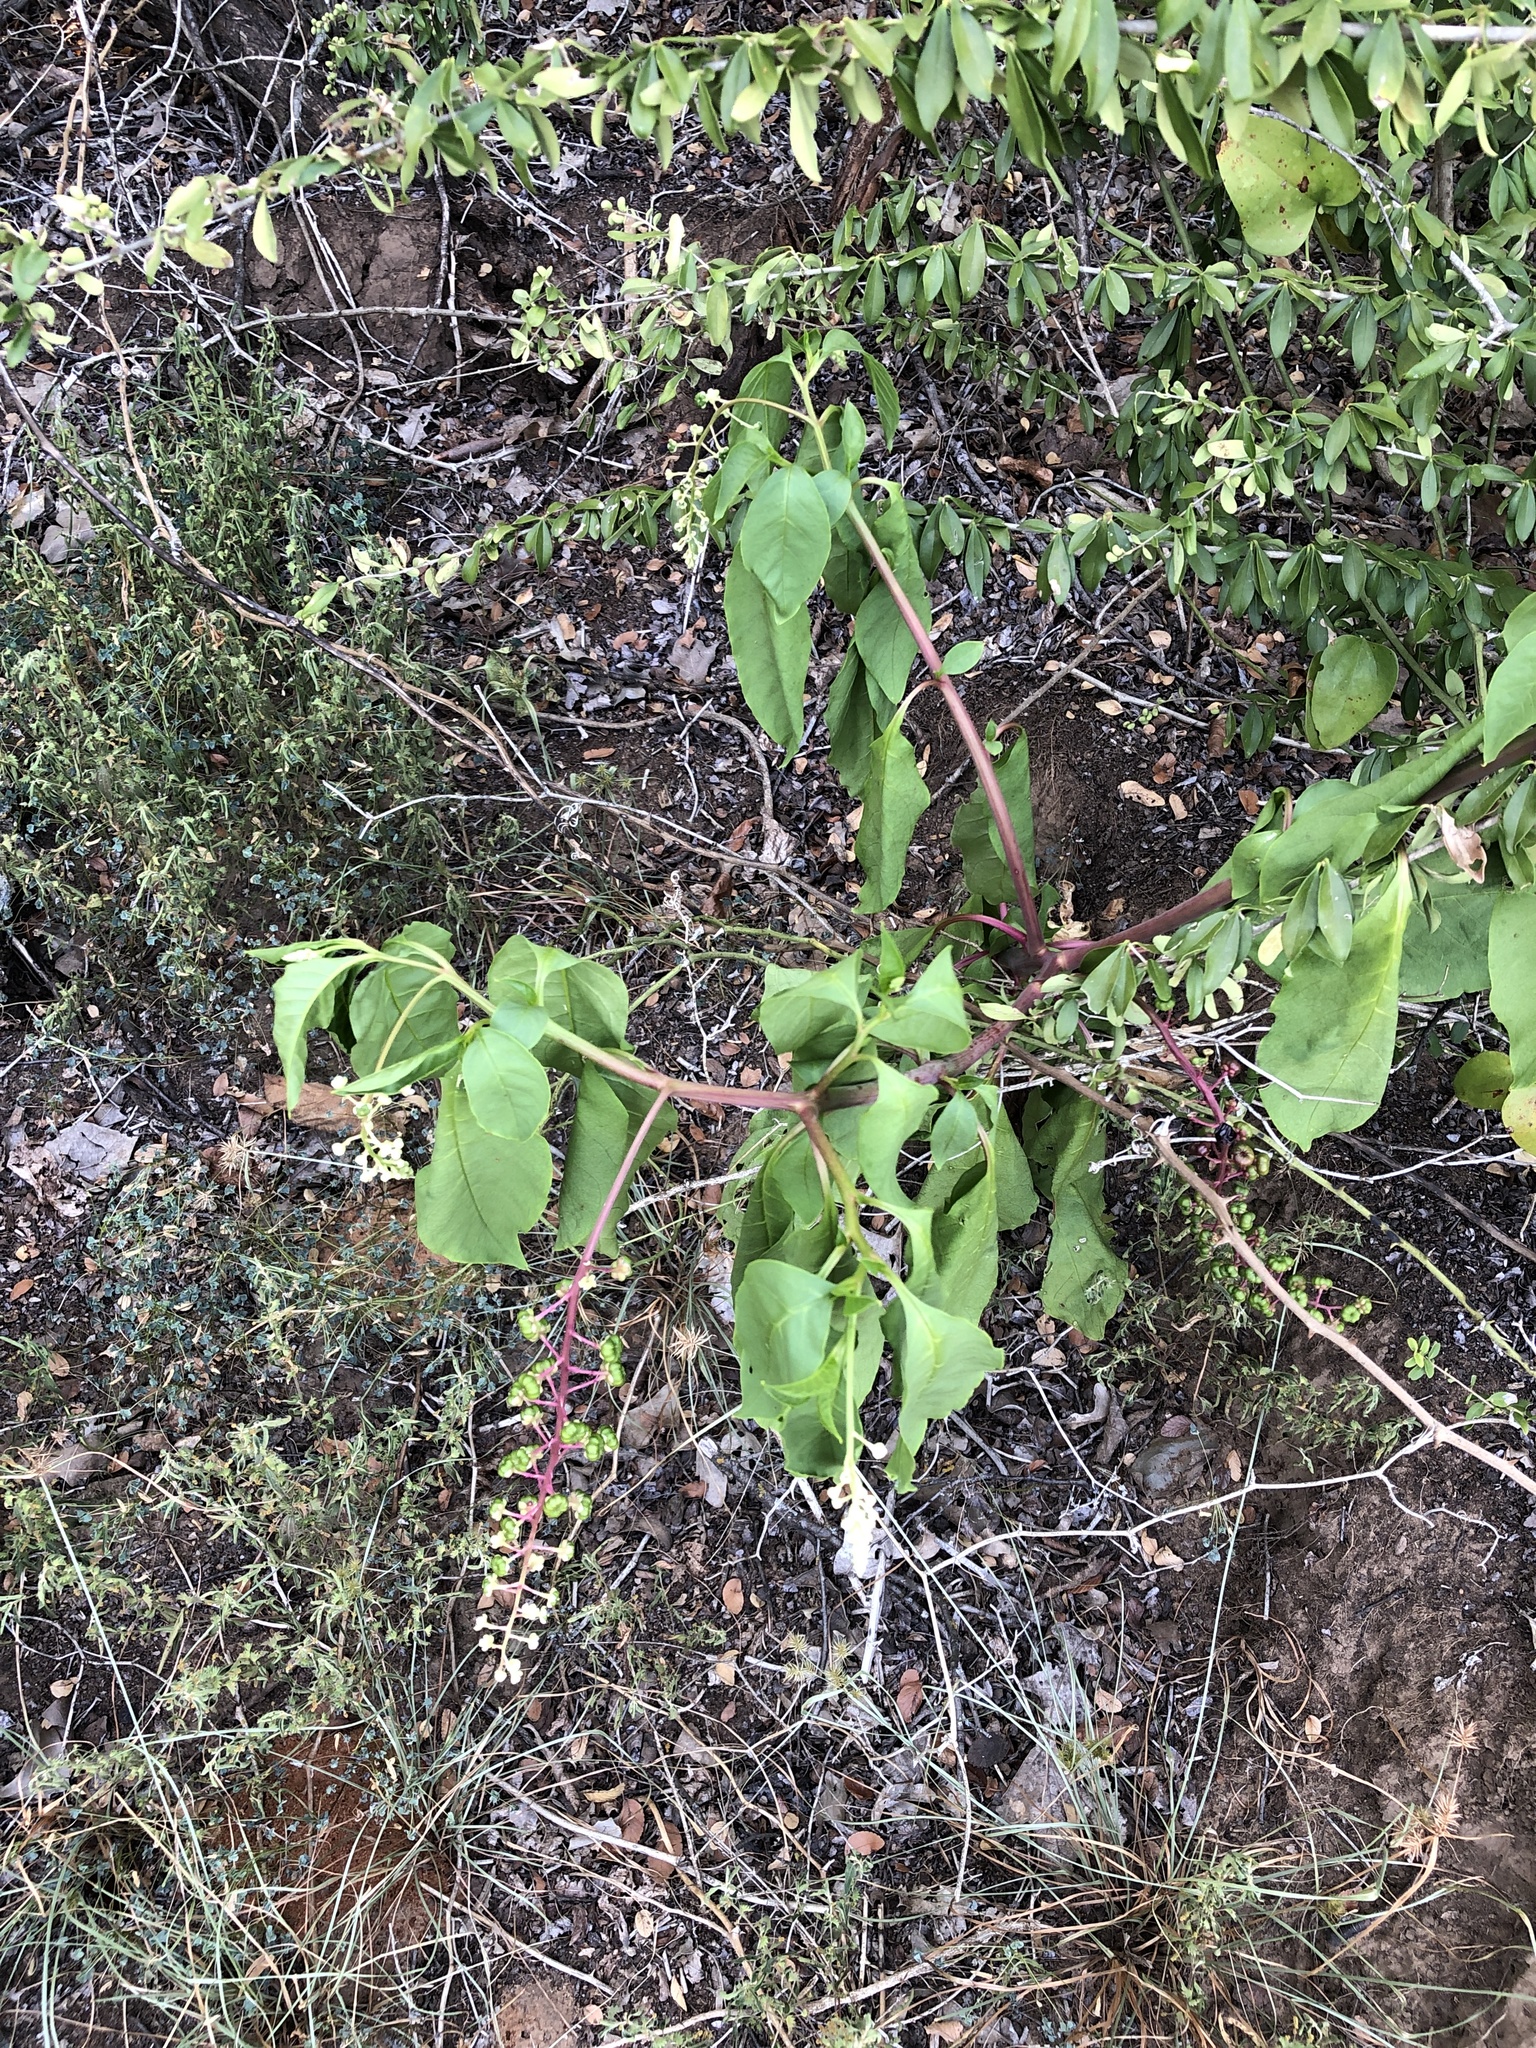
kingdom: Plantae
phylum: Tracheophyta
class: Magnoliopsida
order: Caryophyllales
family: Phytolaccaceae
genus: Phytolacca
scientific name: Phytolacca americana
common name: American pokeweed
